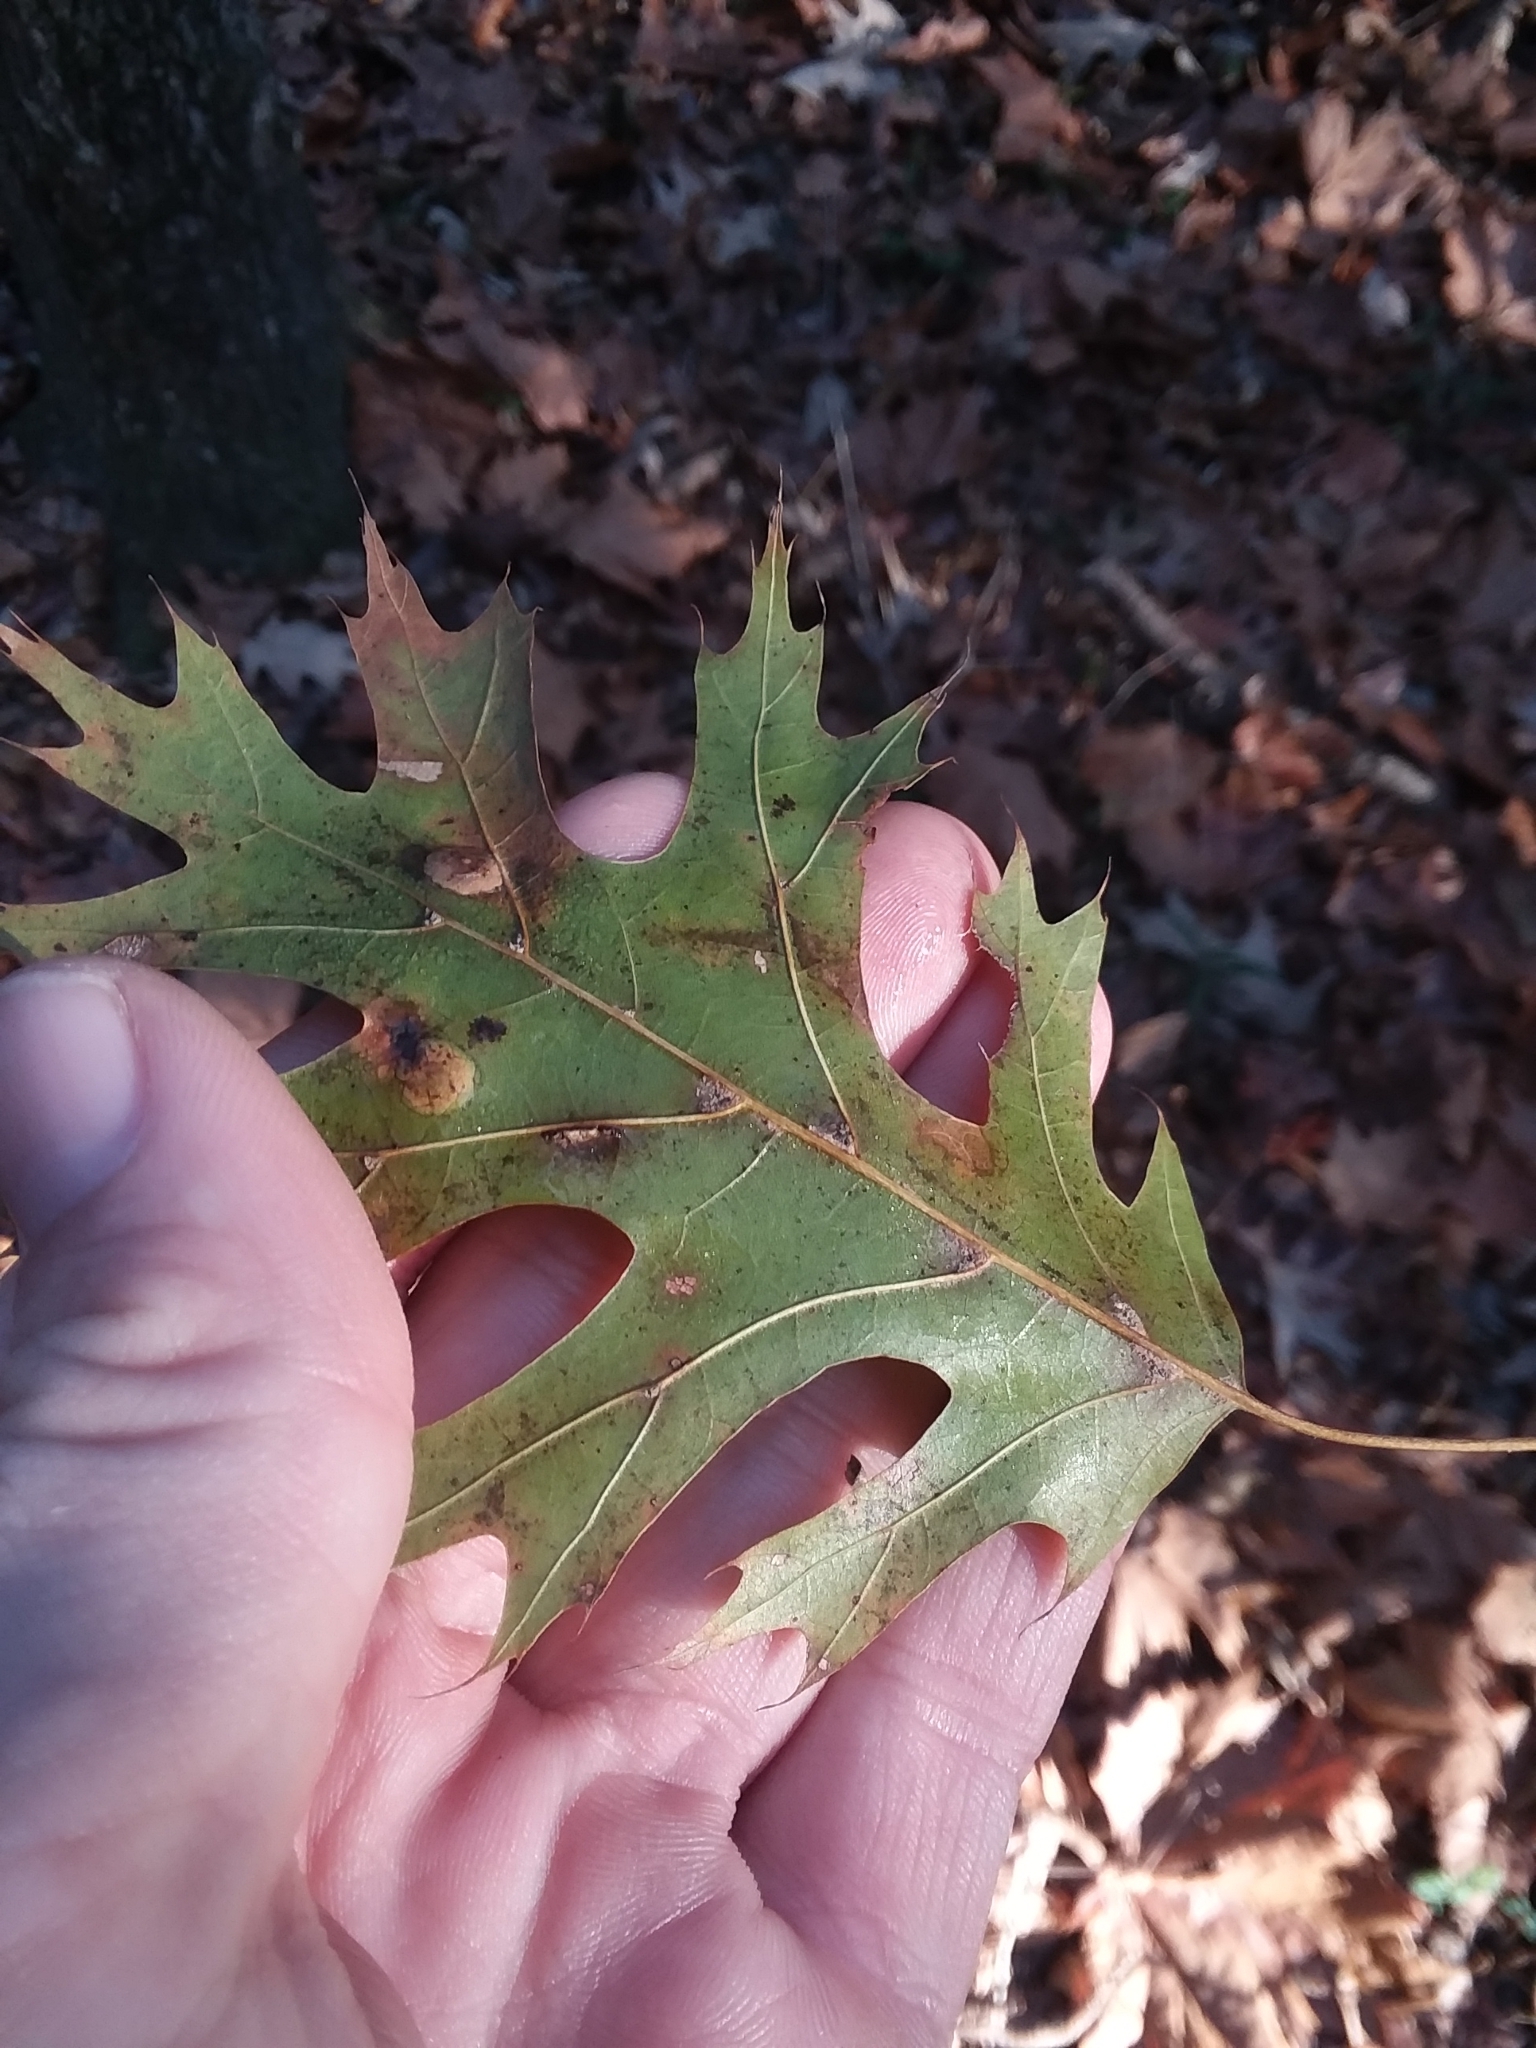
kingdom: Plantae
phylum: Tracheophyta
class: Magnoliopsida
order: Fagales
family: Fagaceae
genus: Quercus
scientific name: Quercus shumardii
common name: Shumard oak
